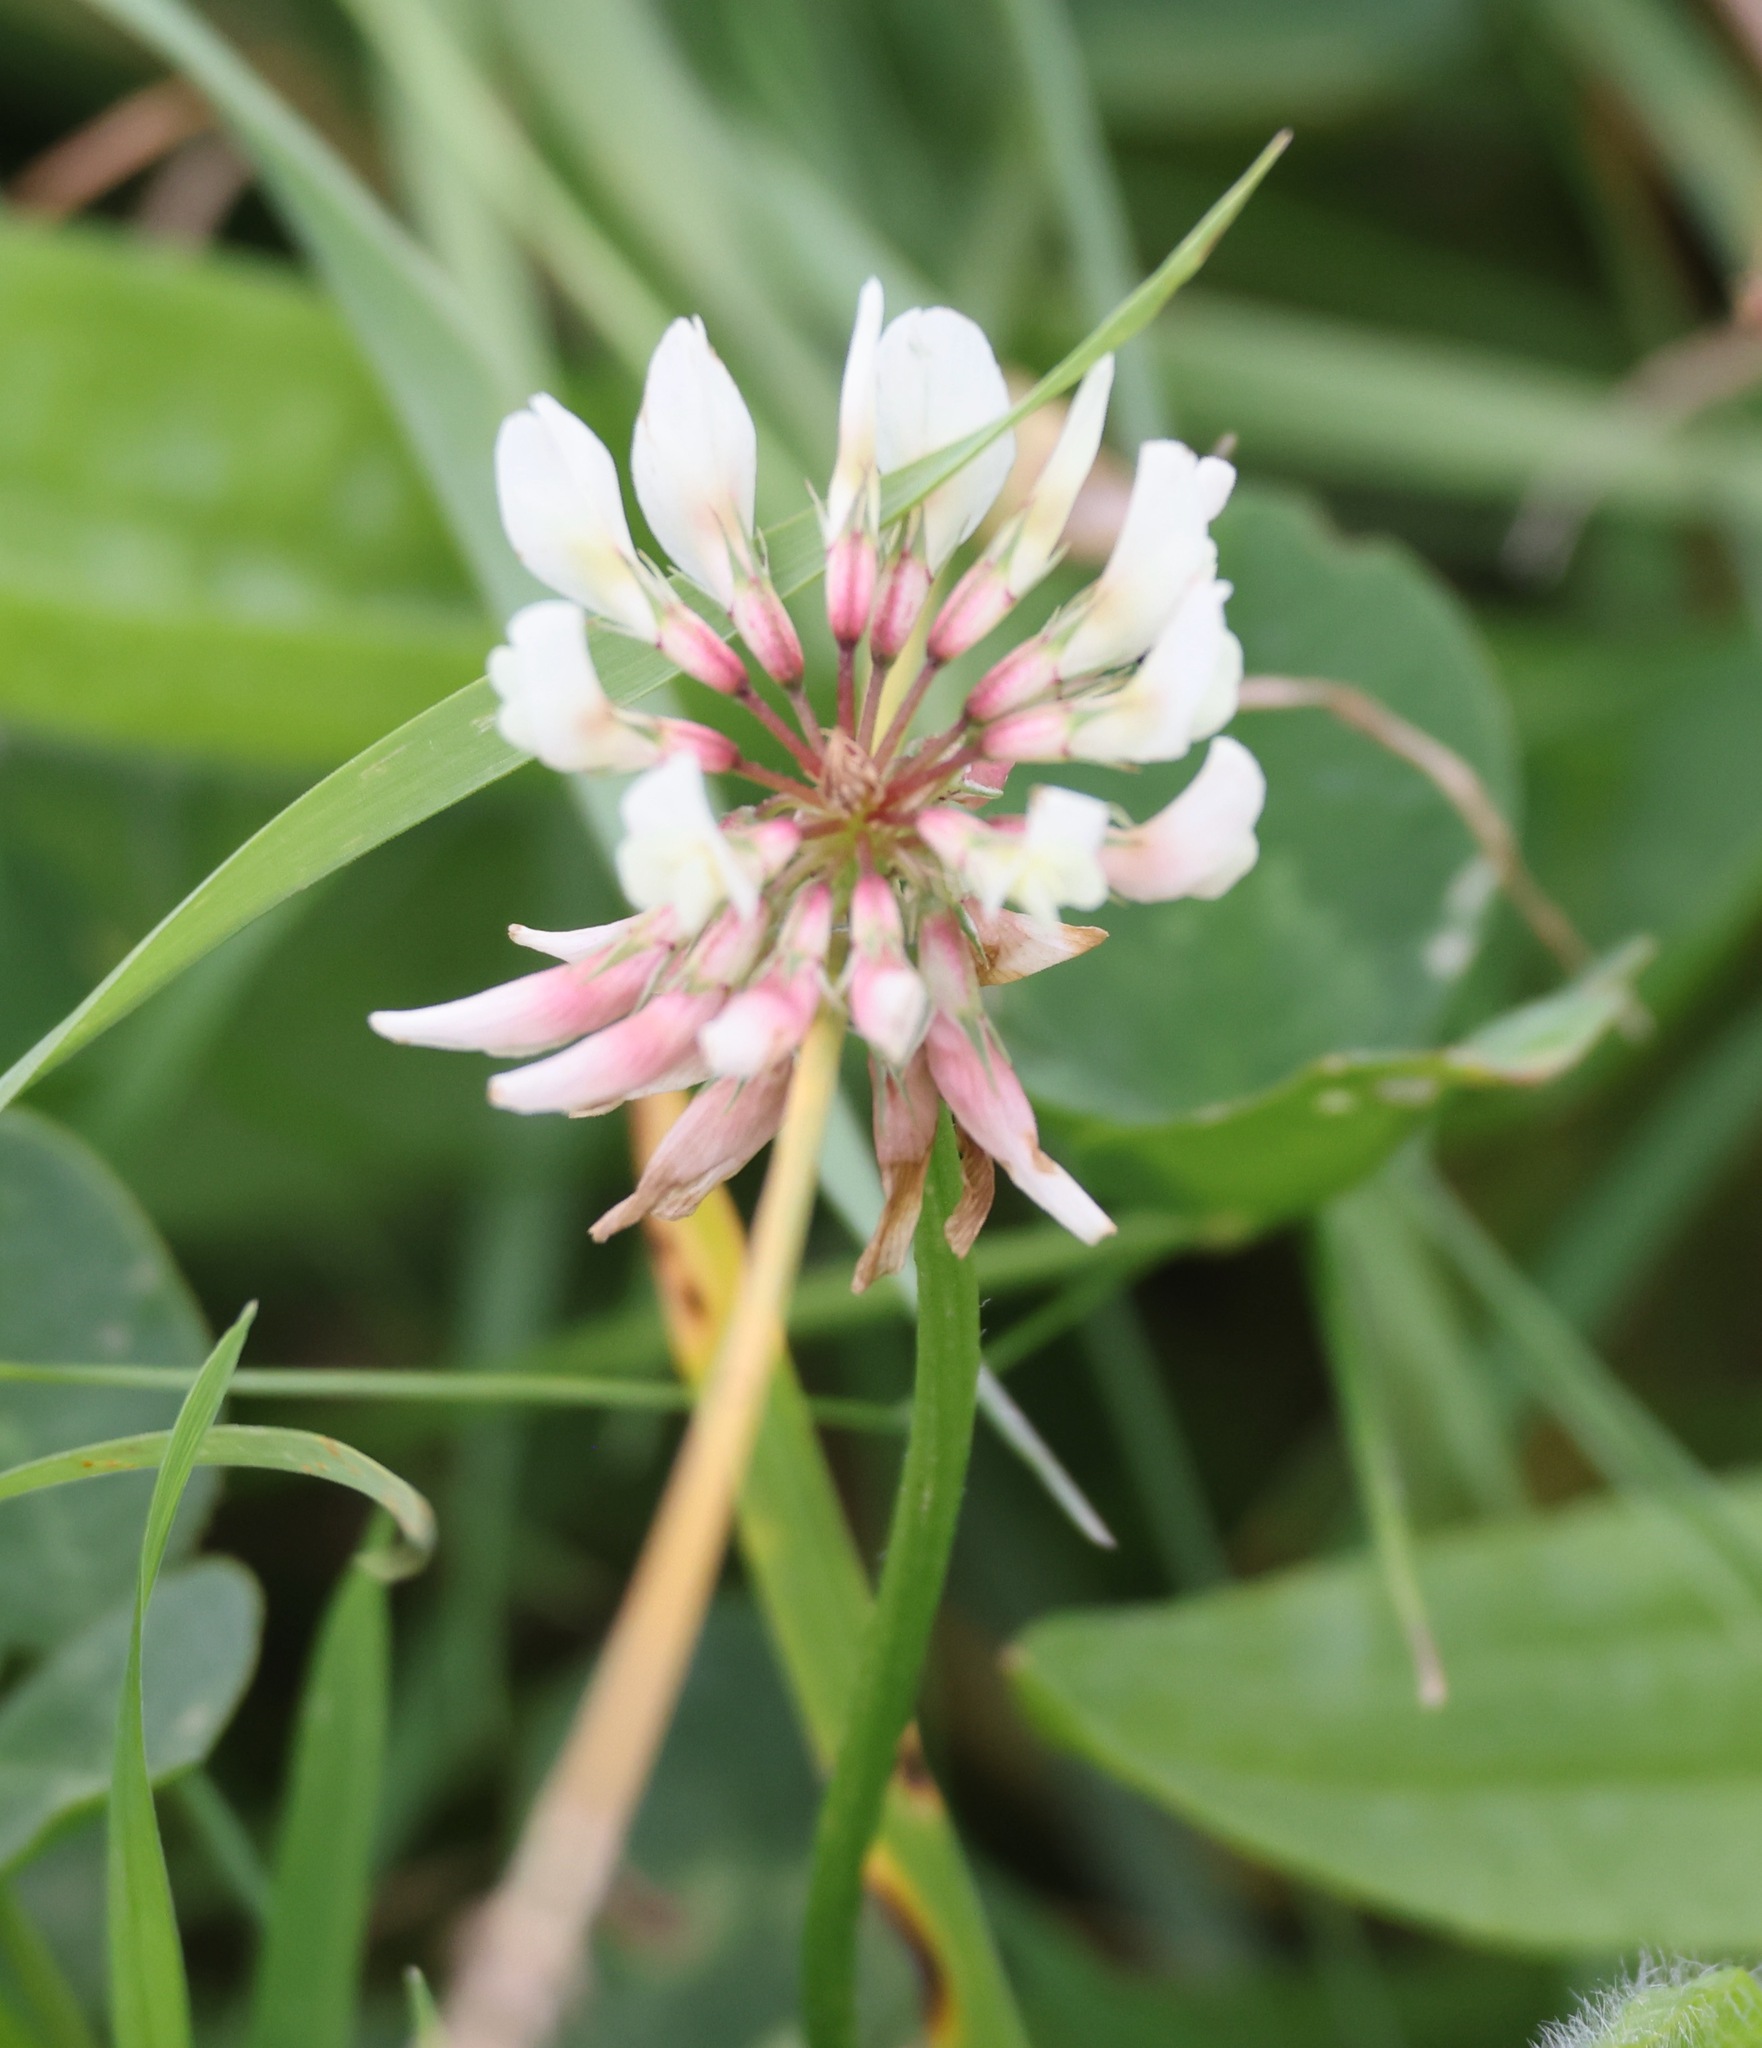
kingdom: Plantae
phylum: Tracheophyta
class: Magnoliopsida
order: Fabales
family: Fabaceae
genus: Trifolium
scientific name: Trifolium repens
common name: White clover
